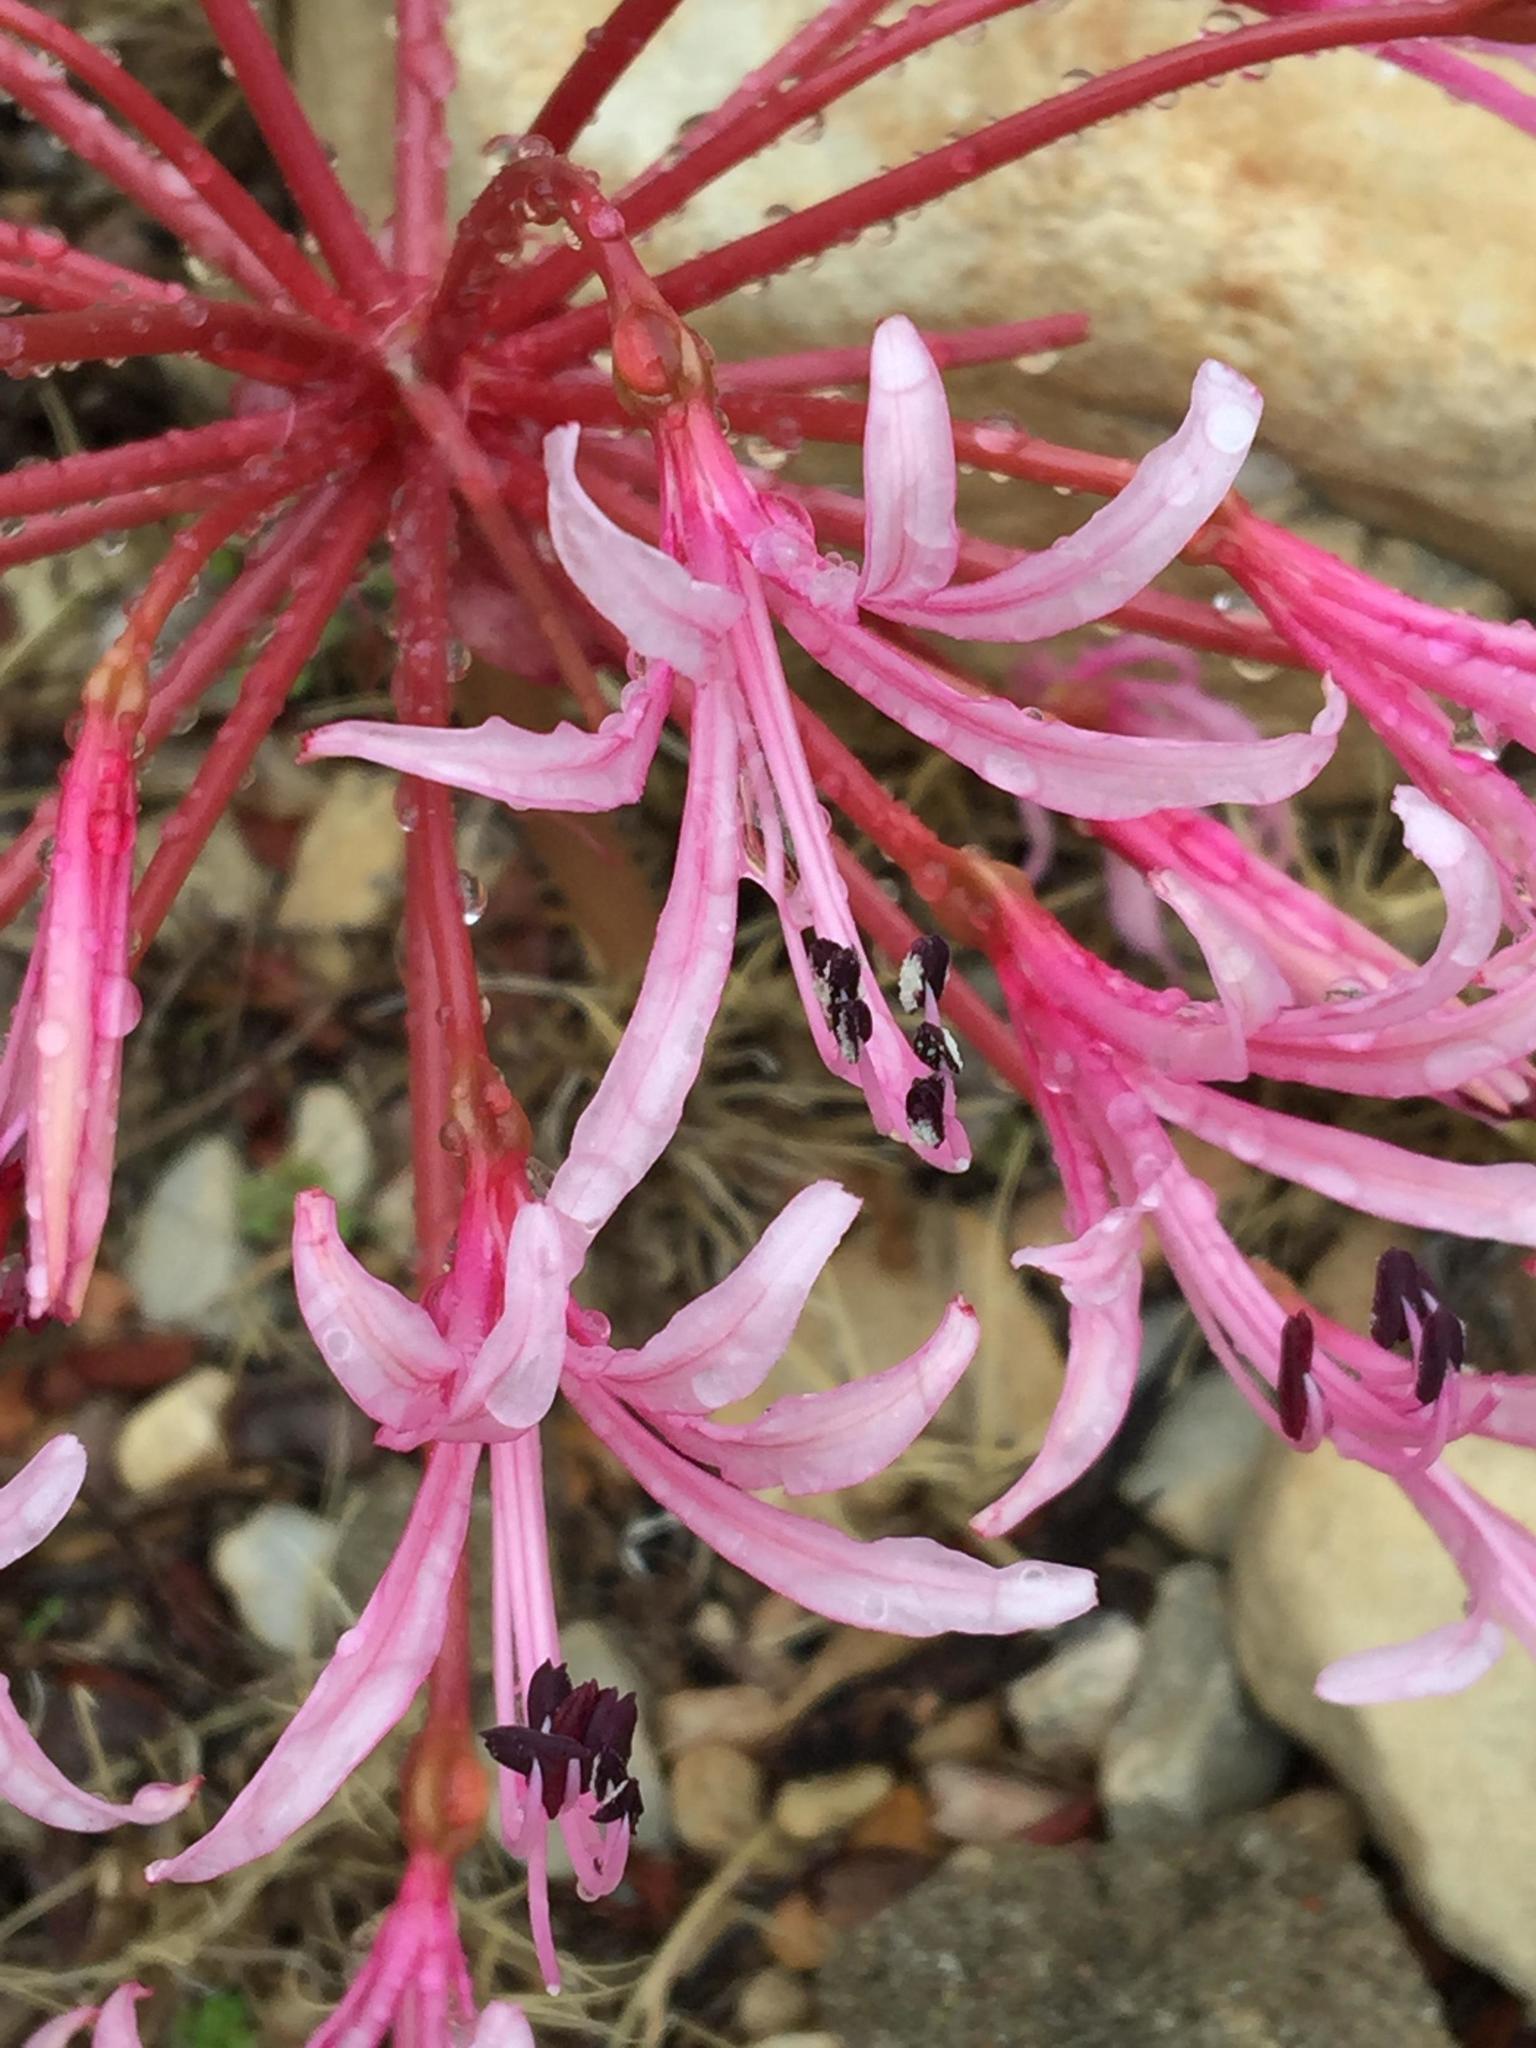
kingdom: Plantae
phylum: Tracheophyta
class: Liliopsida
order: Asparagales
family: Amaryllidaceae
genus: Brunsvigia
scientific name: Brunsvigia nervosa
